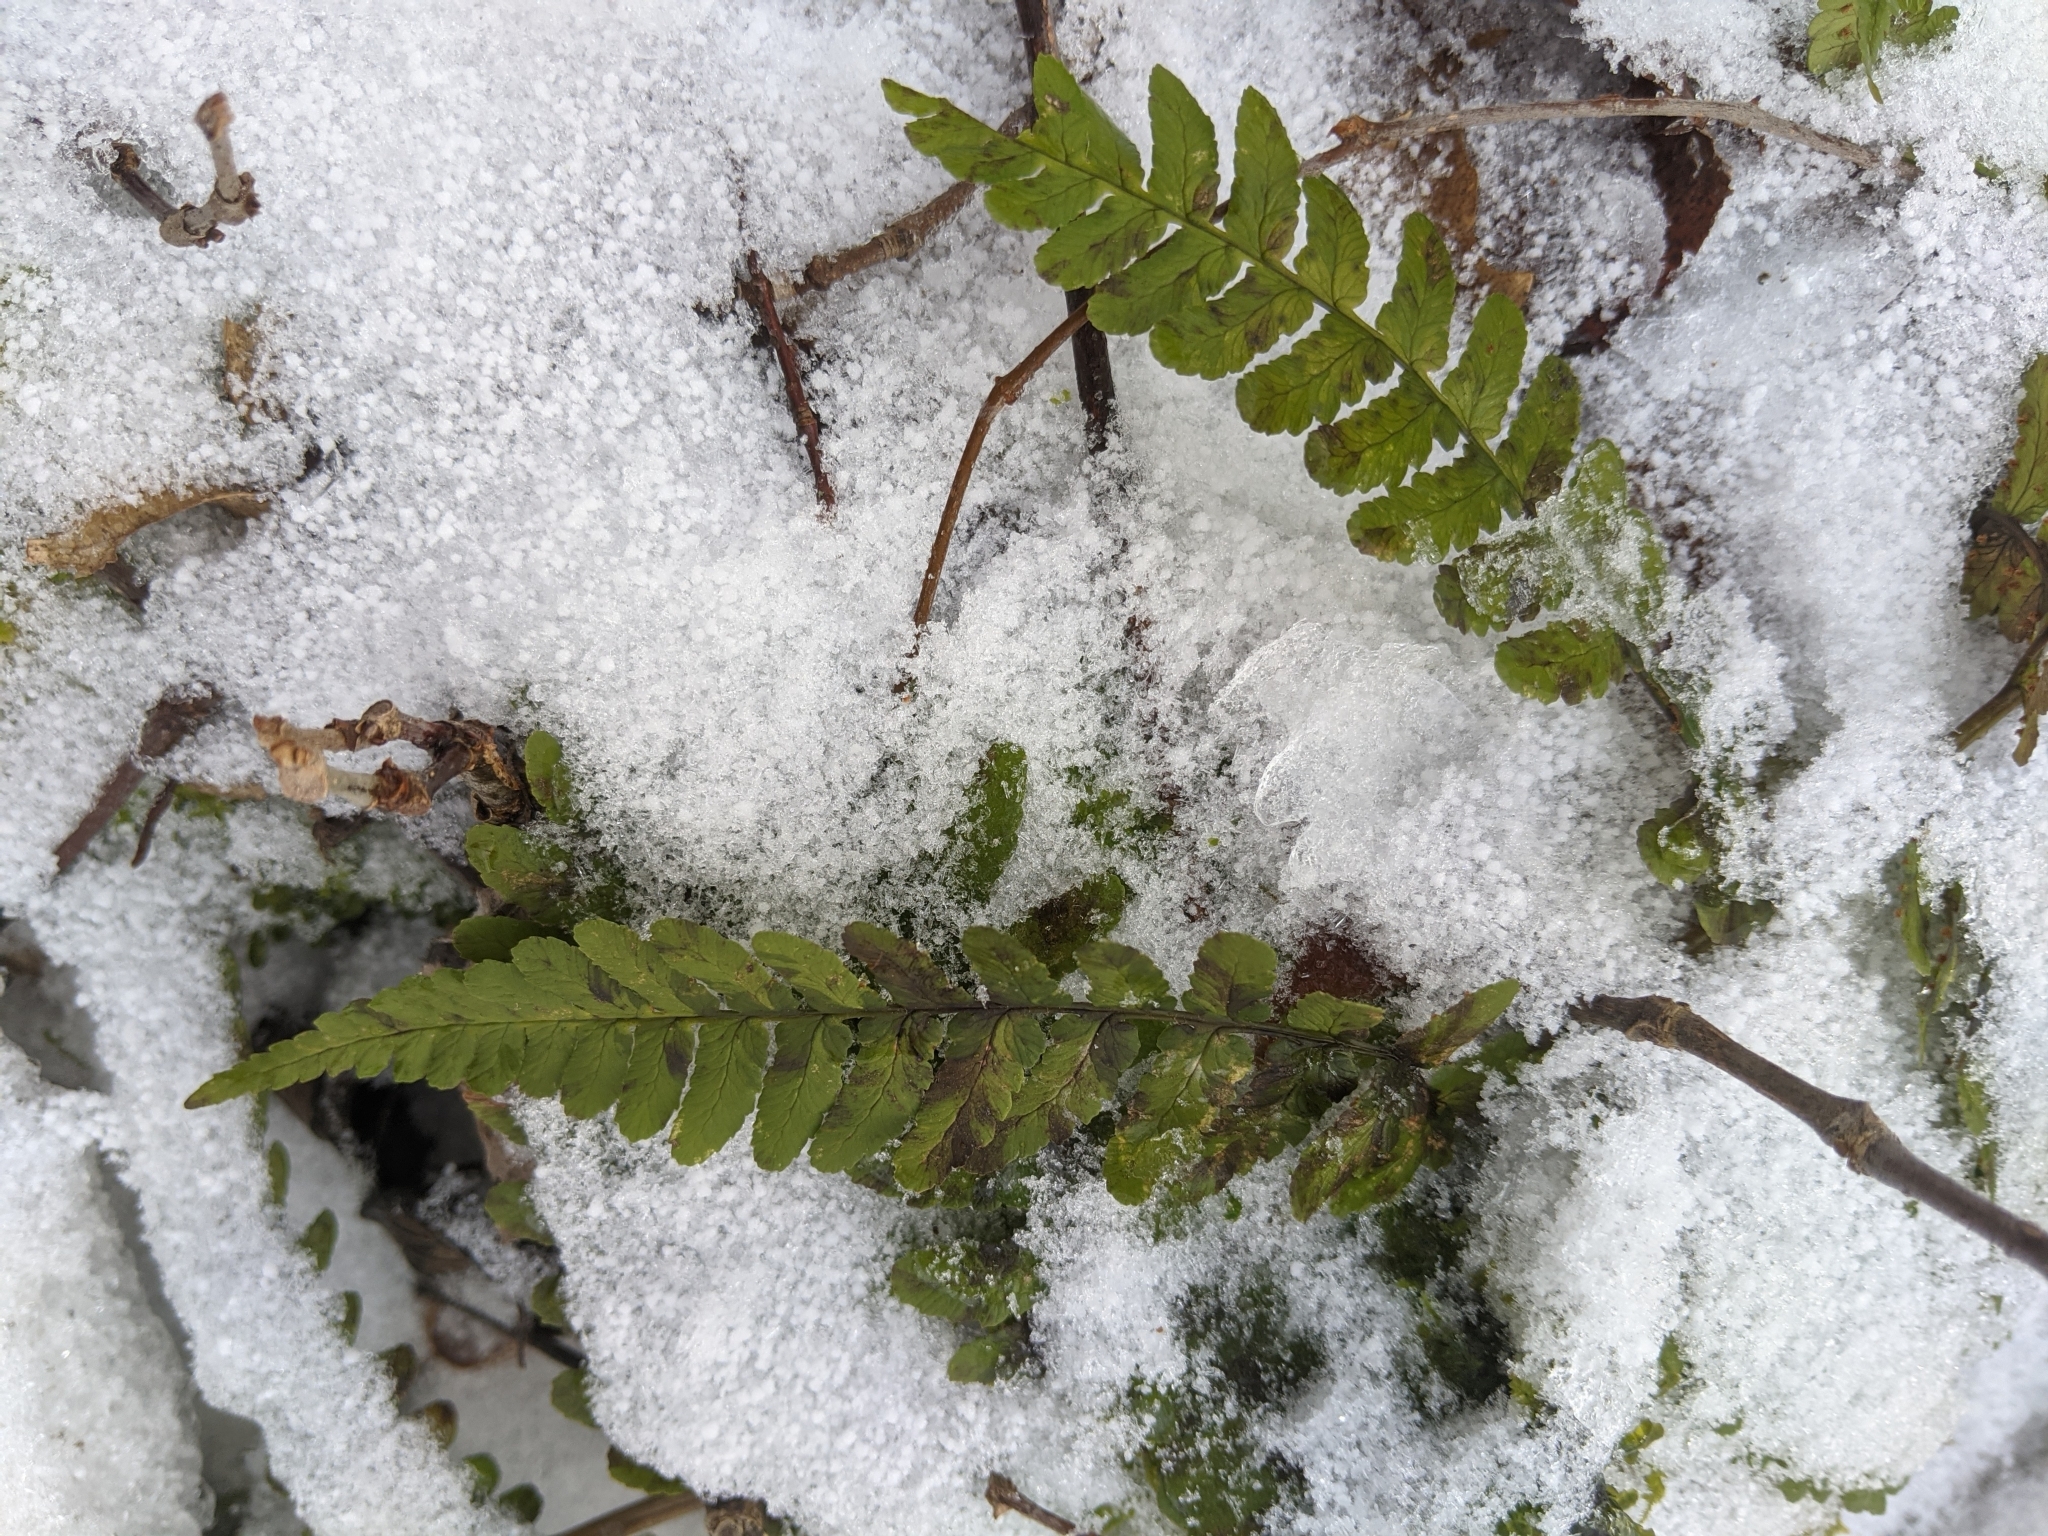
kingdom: Plantae
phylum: Tracheophyta
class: Polypodiopsida
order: Polypodiales
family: Dryopteridaceae
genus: Dryopteris
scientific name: Dryopteris marginalis
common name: Marginal wood fern
